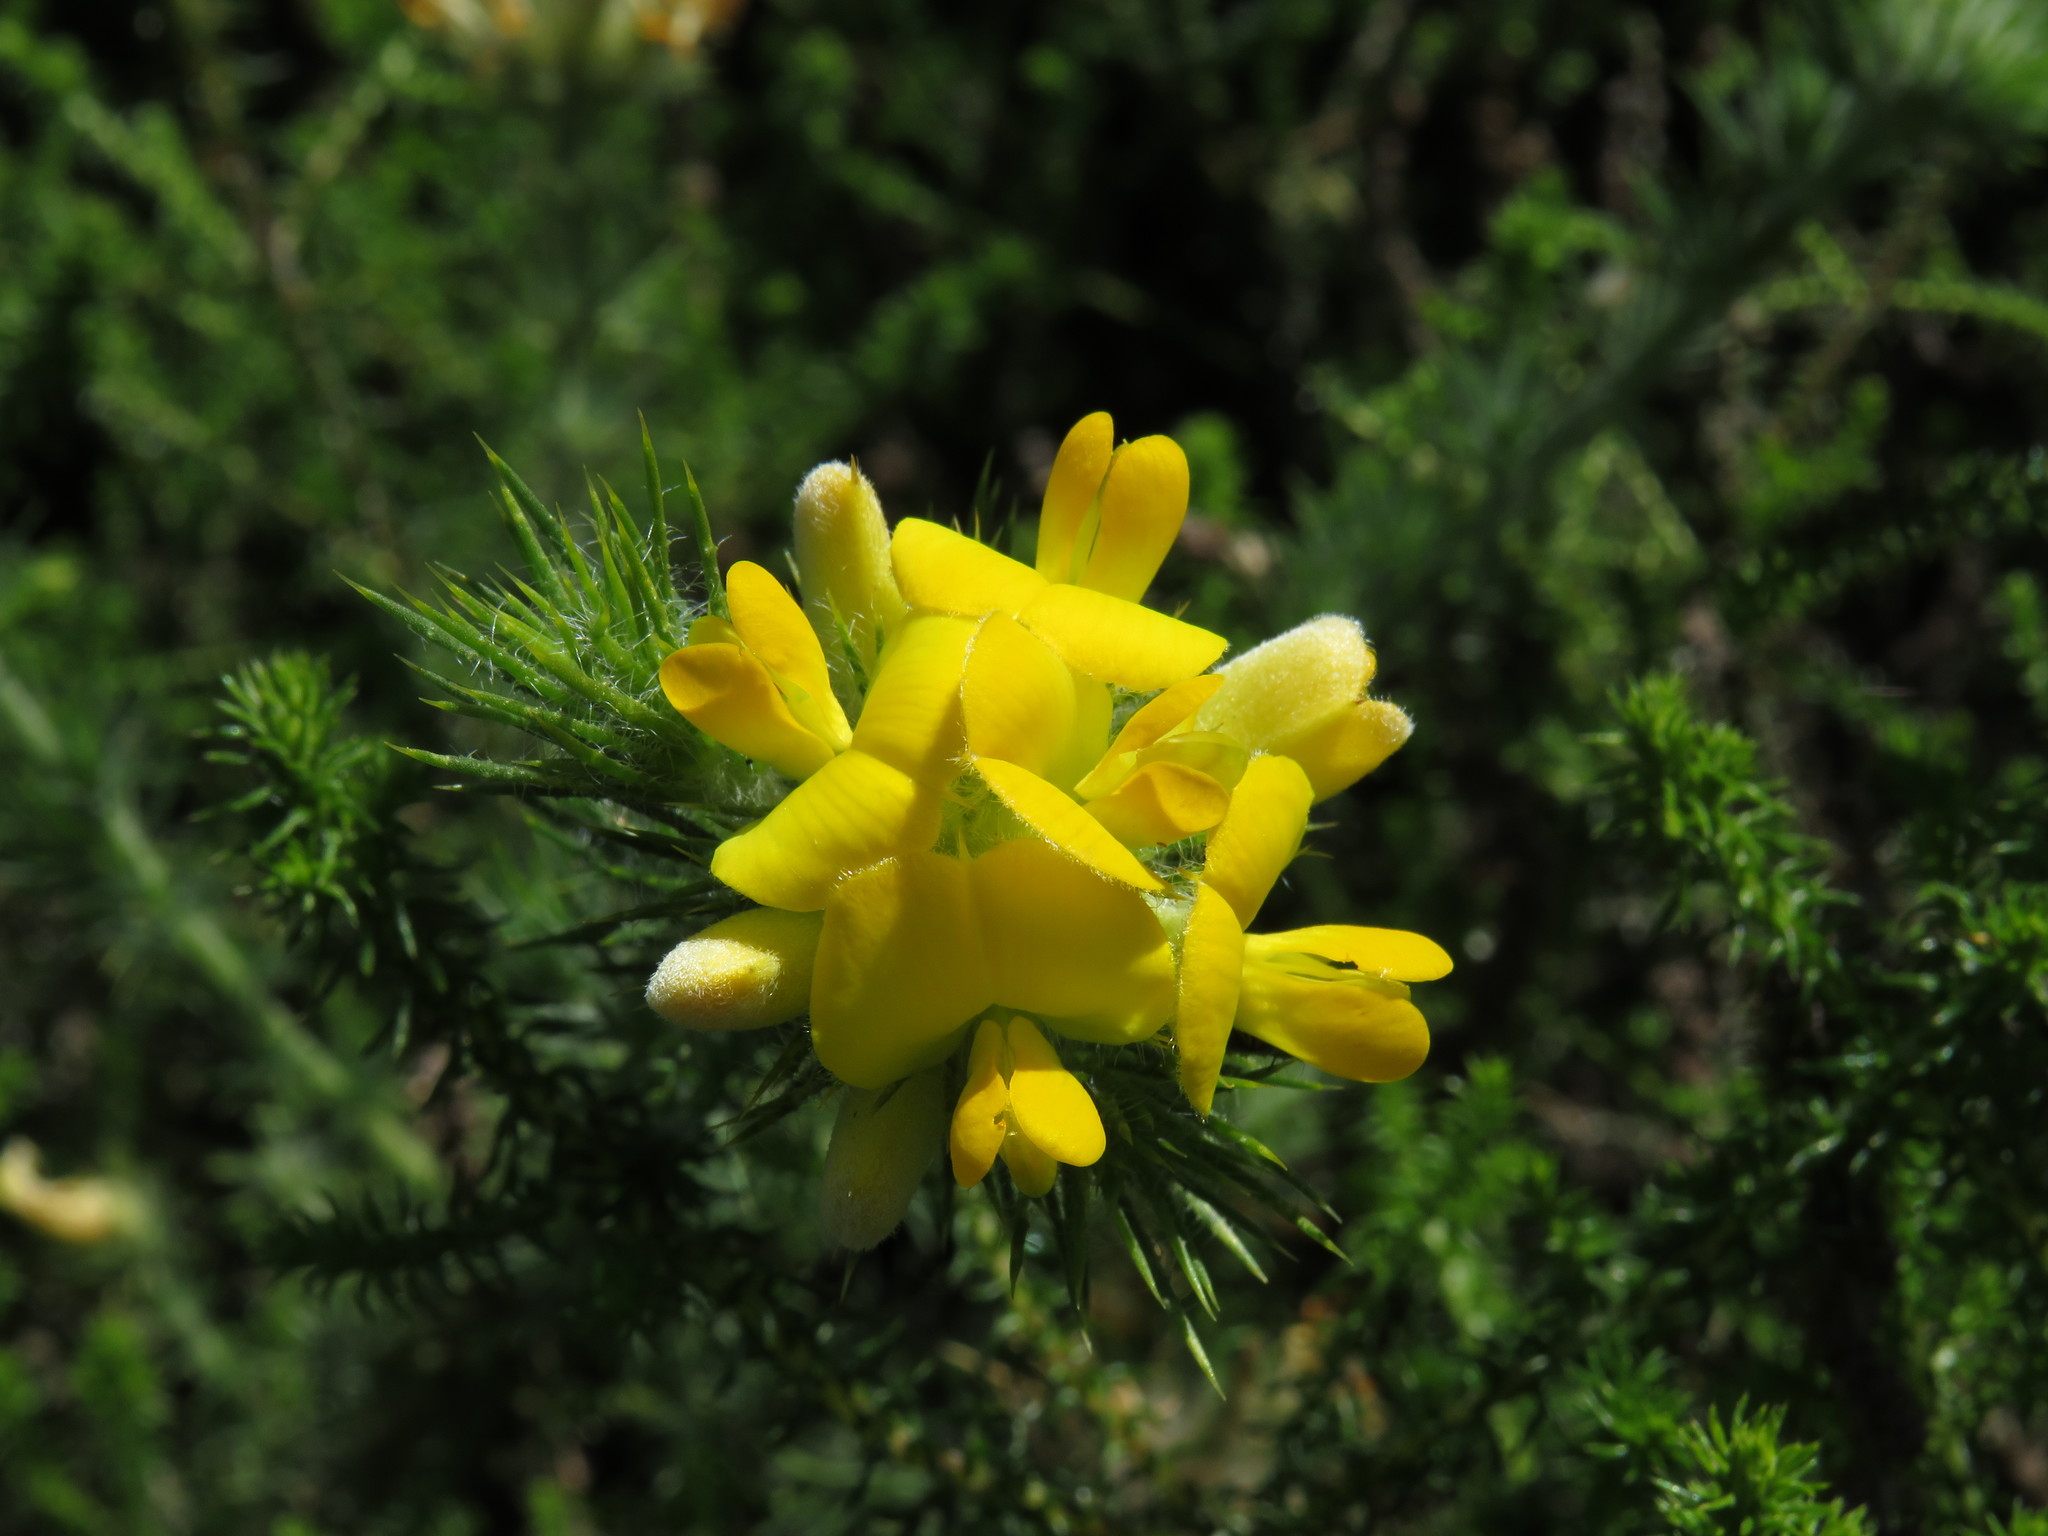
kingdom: Plantae
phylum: Tracheophyta
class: Magnoliopsida
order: Fabales
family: Fabaceae
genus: Aspalathus
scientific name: Aspalathus chenopoda
